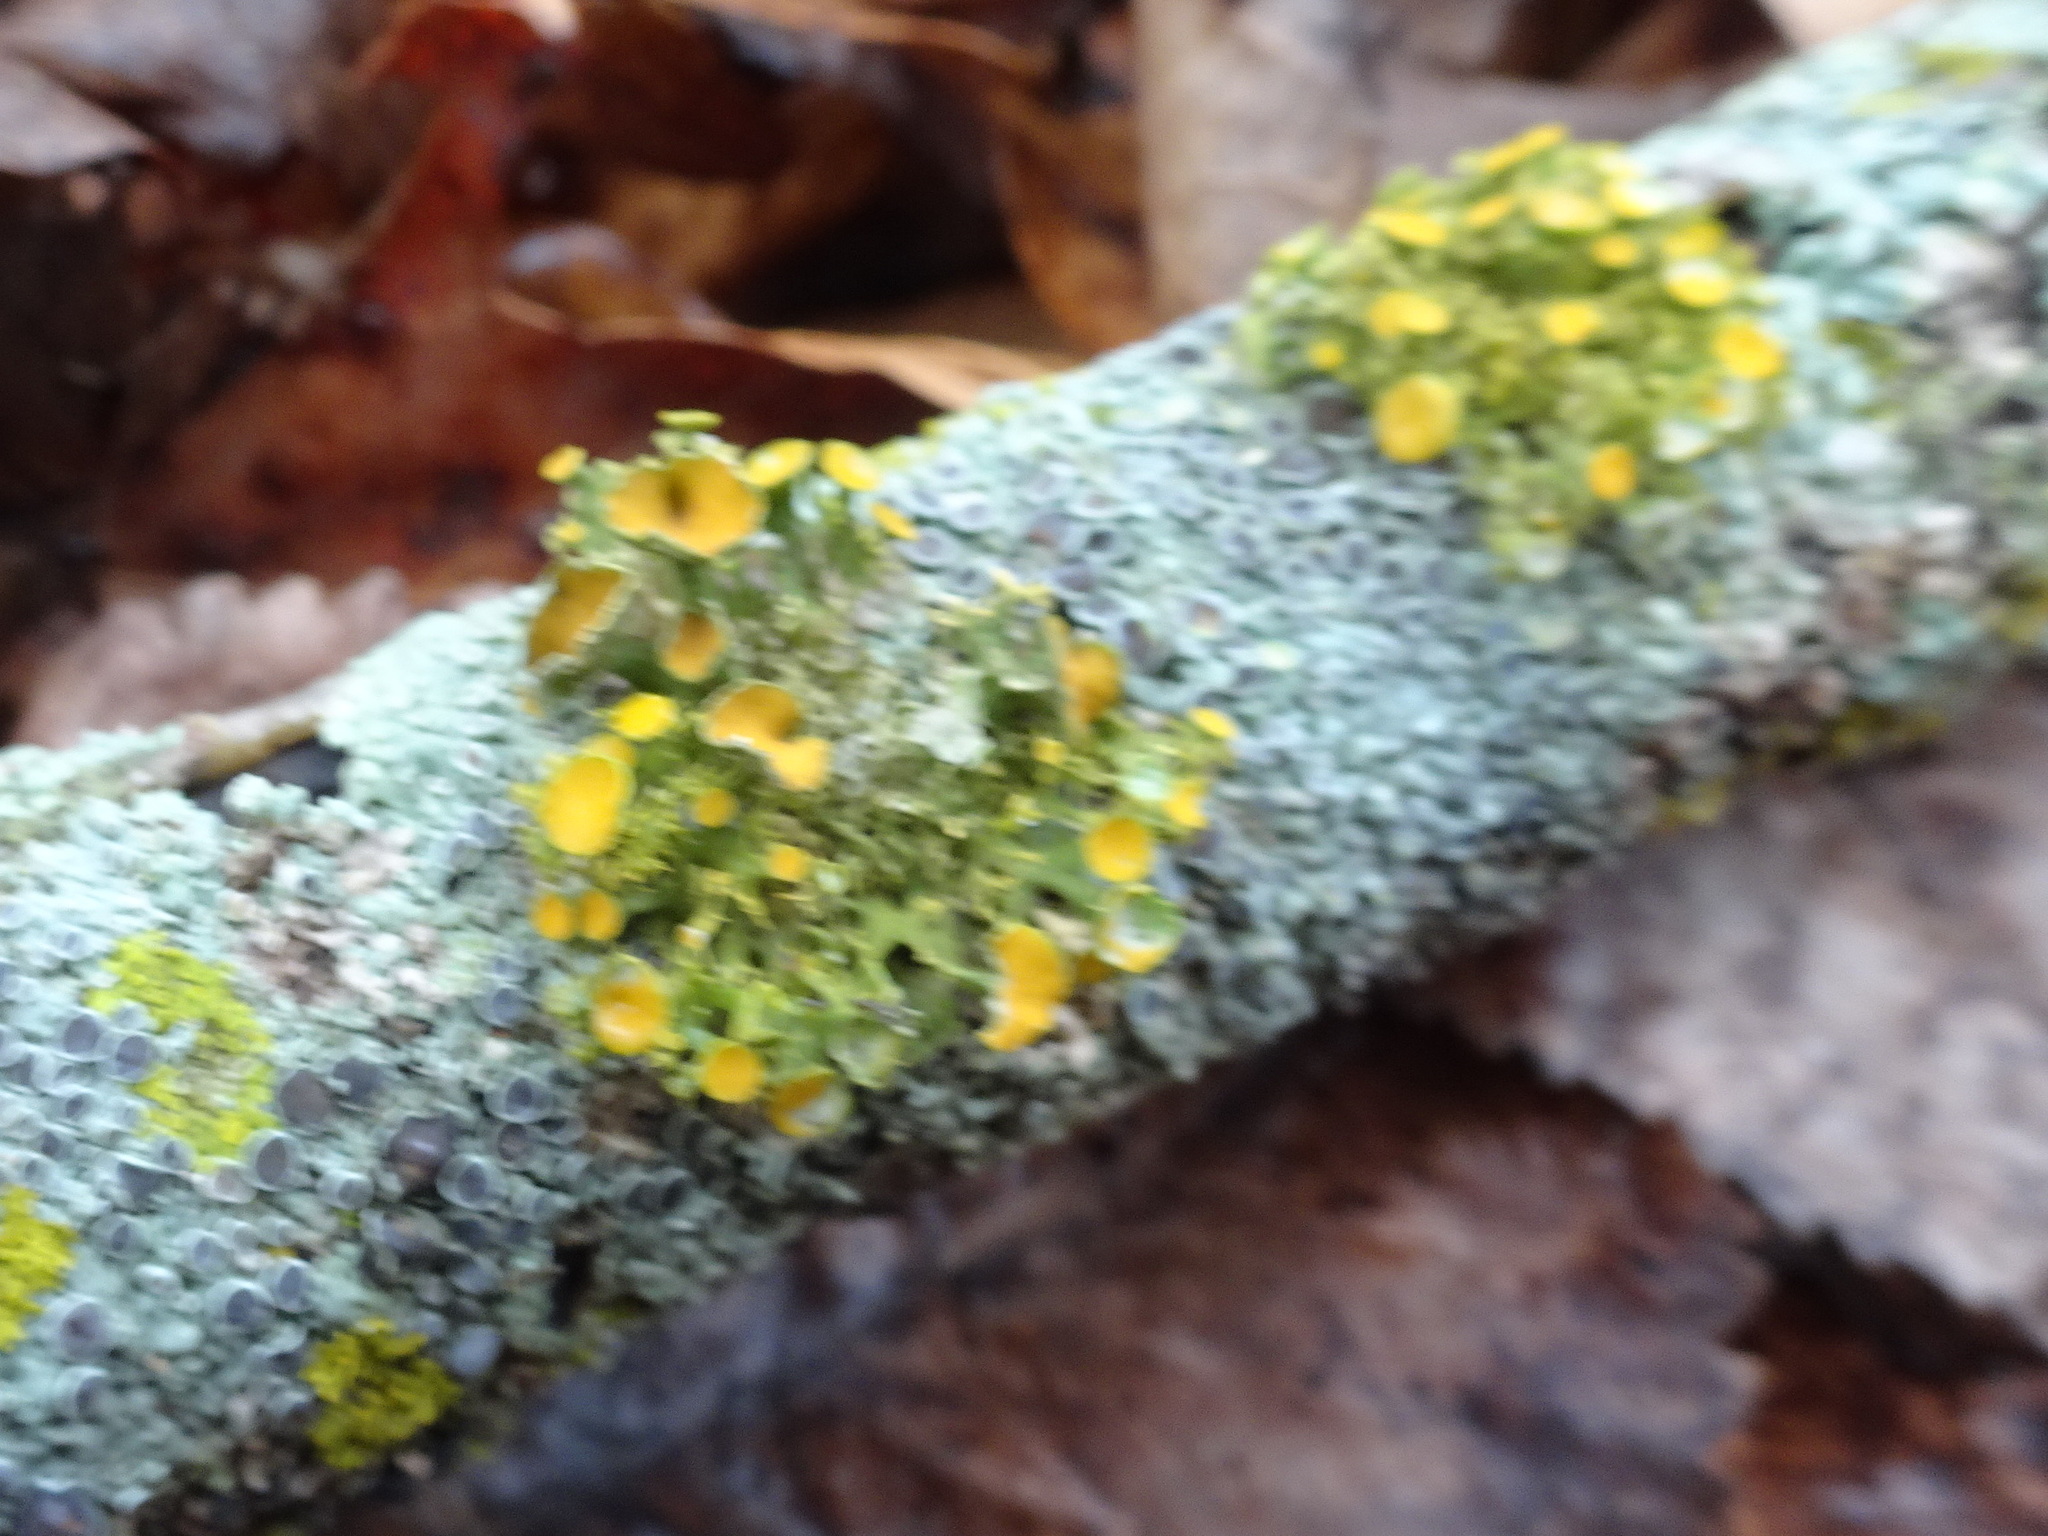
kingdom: Fungi
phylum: Ascomycota
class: Lecanoromycetes
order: Teloschistales
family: Teloschistaceae
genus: Niorma
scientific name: Niorma chrysophthalma
